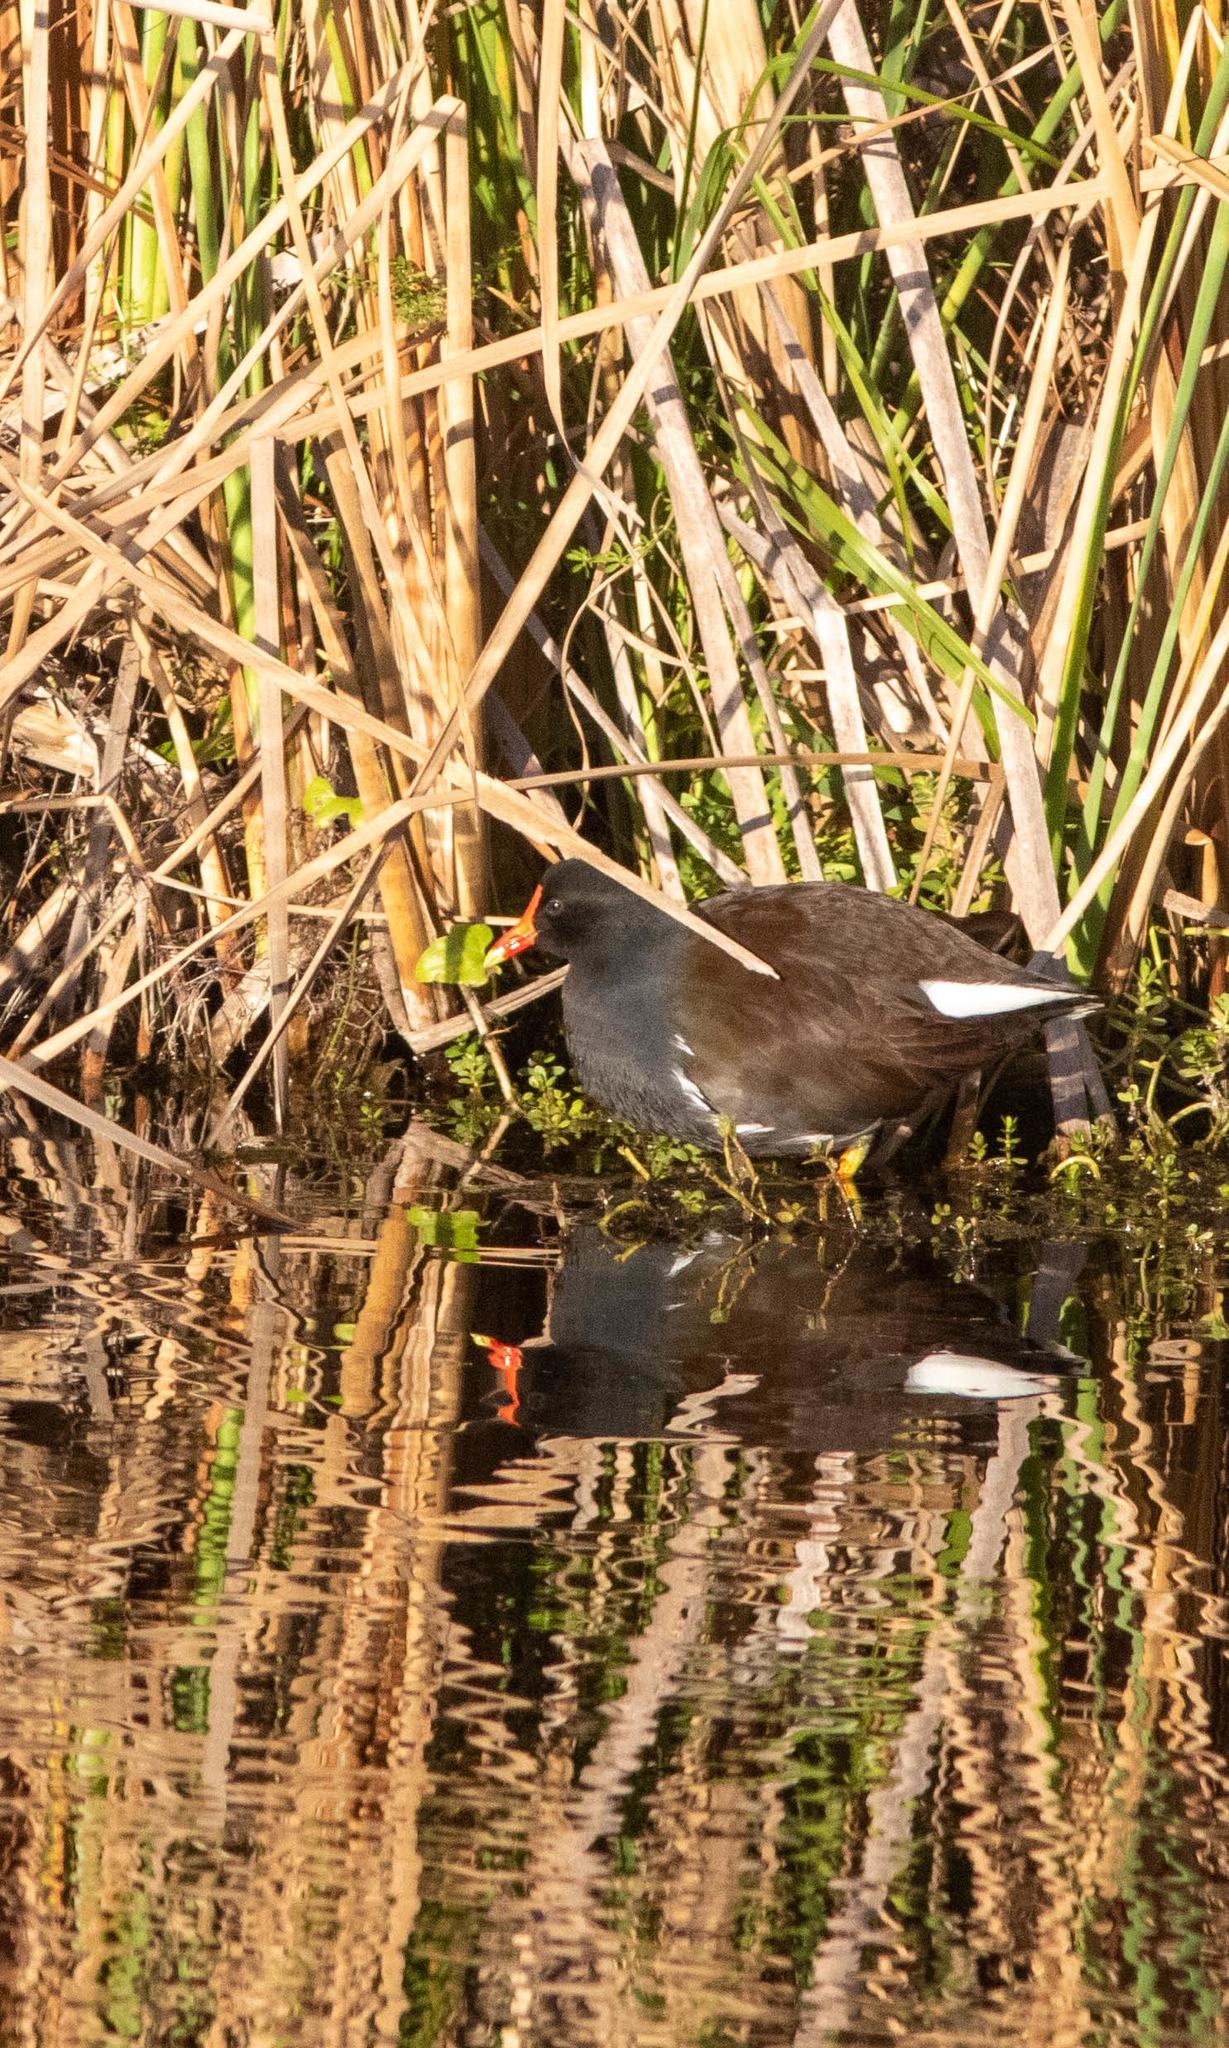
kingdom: Animalia
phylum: Chordata
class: Aves
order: Gruiformes
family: Rallidae
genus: Gallinula
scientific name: Gallinula chloropus
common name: Common moorhen
